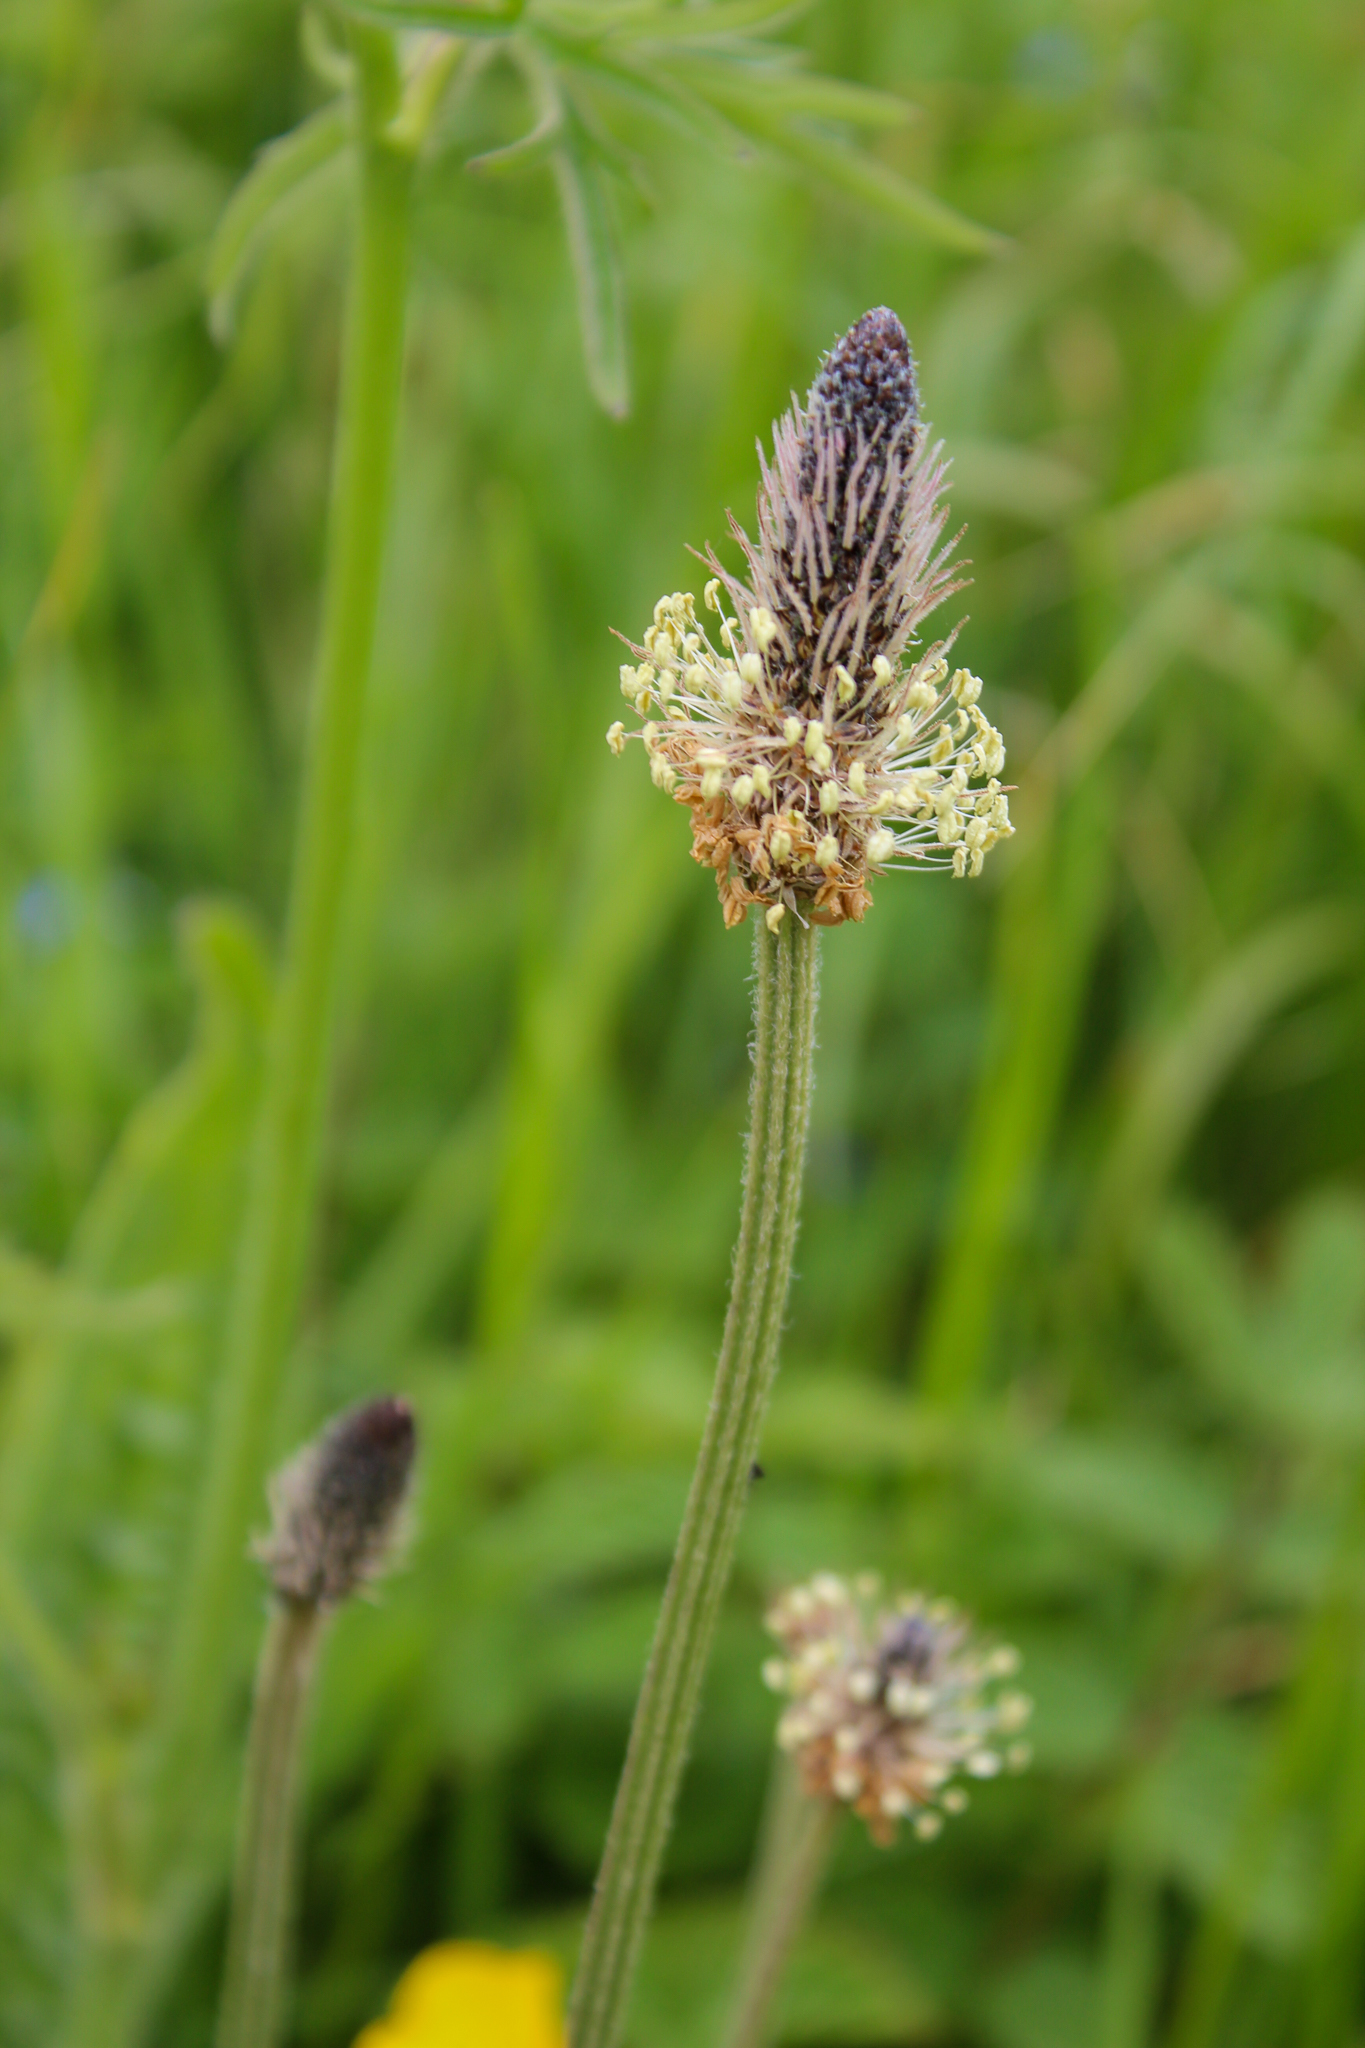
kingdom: Plantae
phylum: Tracheophyta
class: Magnoliopsida
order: Lamiales
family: Plantaginaceae
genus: Plantago
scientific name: Plantago lanceolata
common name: Ribwort plantain
